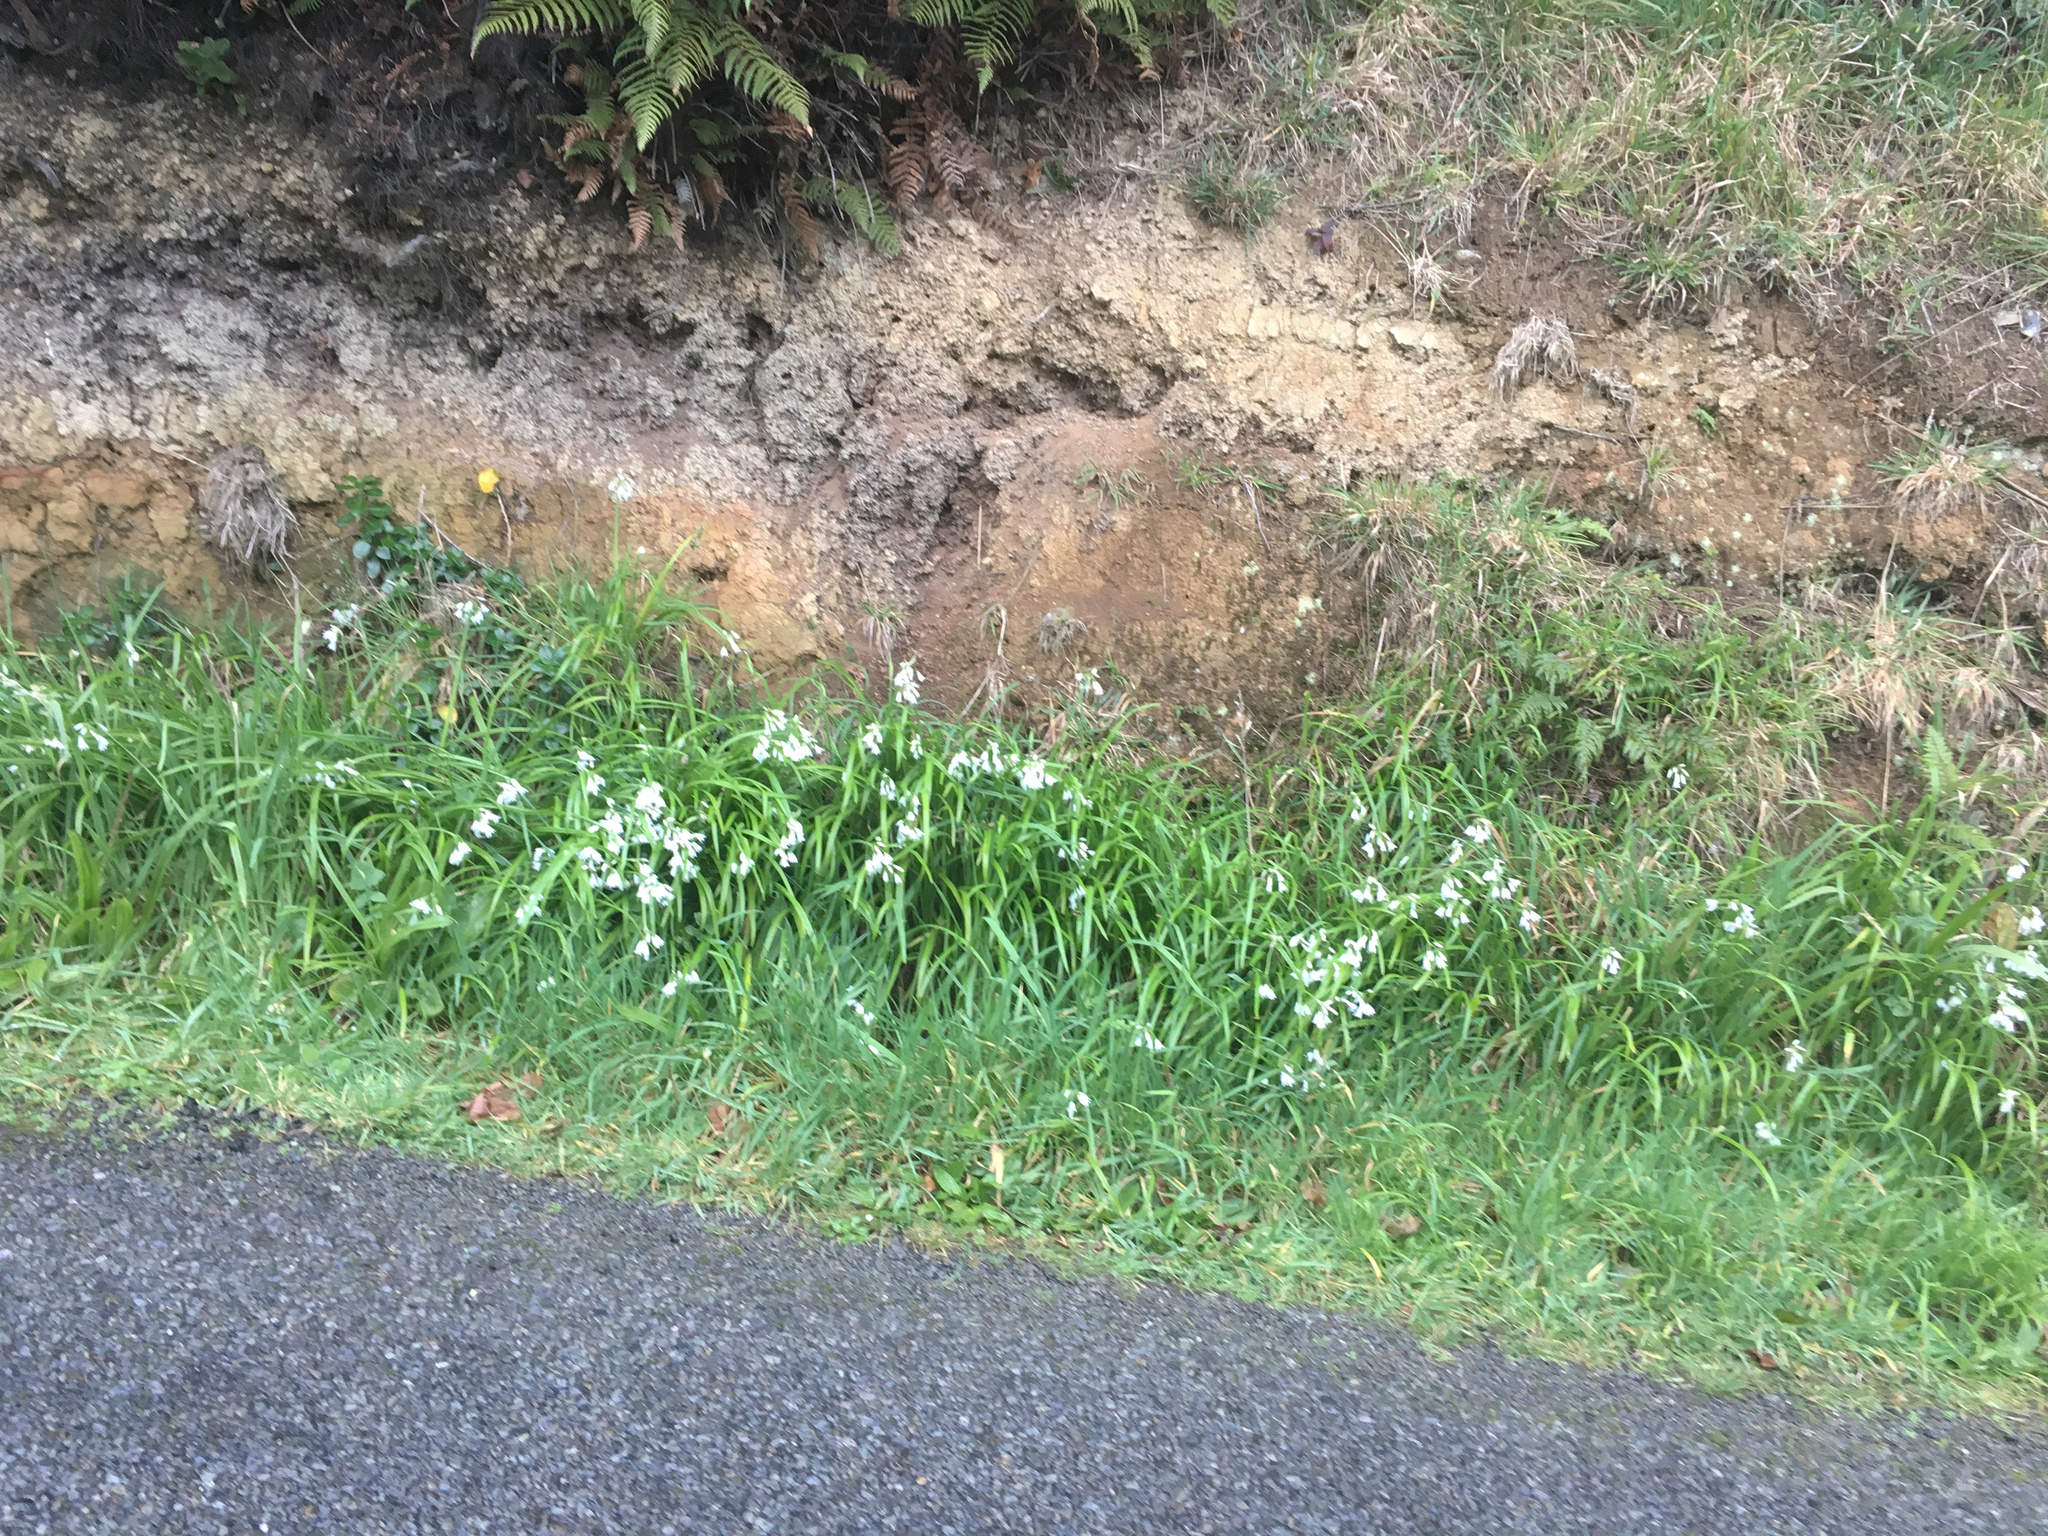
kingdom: Plantae
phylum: Tracheophyta
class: Liliopsida
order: Asparagales
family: Amaryllidaceae
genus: Allium
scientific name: Allium triquetrum
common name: Three-cornered garlic
